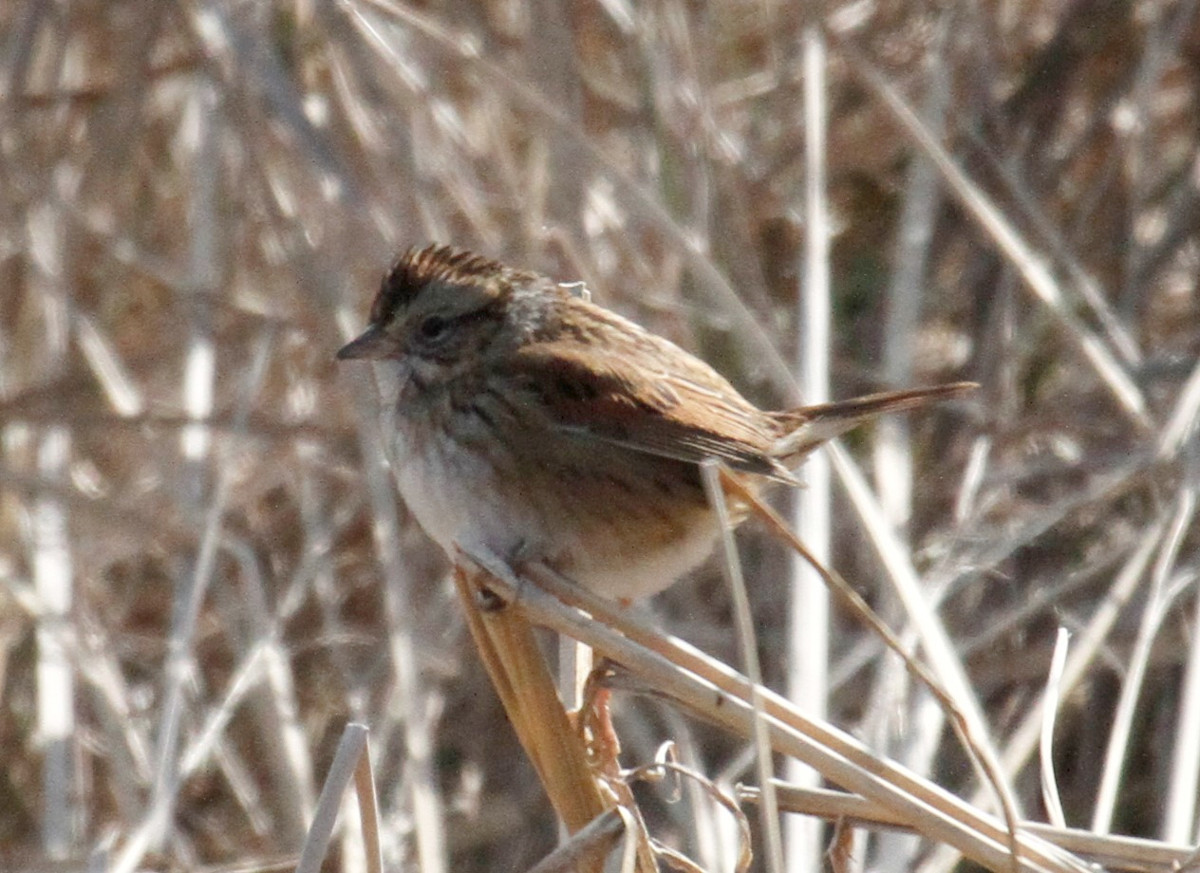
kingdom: Animalia
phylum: Chordata
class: Aves
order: Passeriformes
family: Passerellidae
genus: Melospiza
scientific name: Melospiza georgiana
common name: Swamp sparrow
